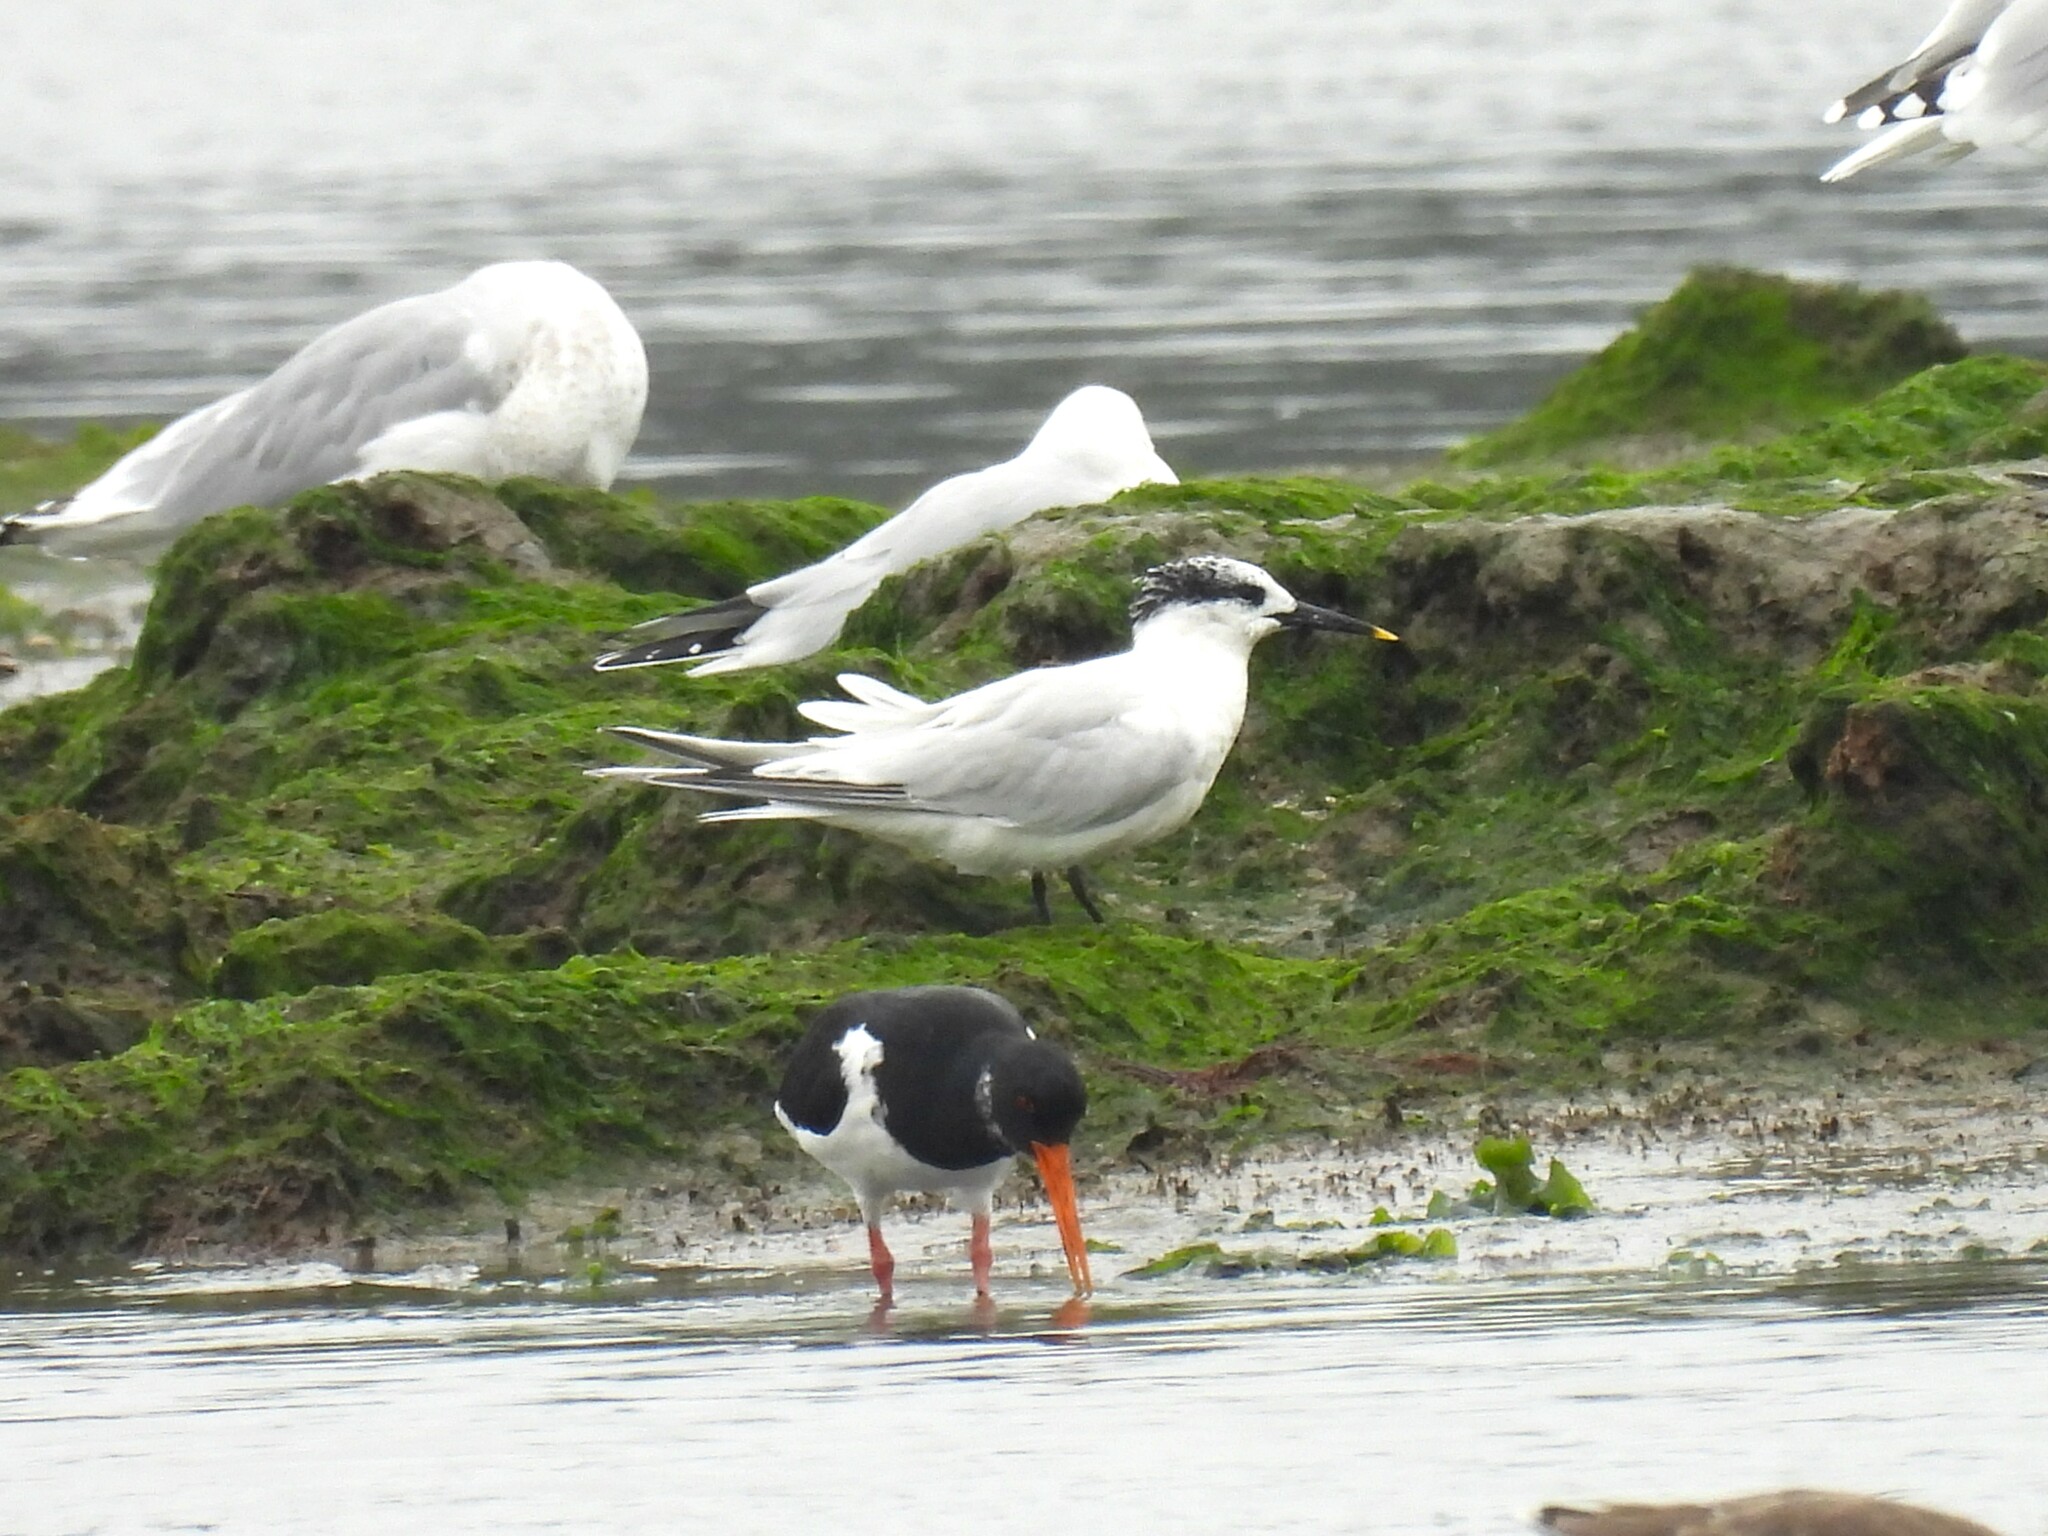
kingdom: Animalia
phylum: Chordata
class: Aves
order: Charadriiformes
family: Laridae
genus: Thalasseus
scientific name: Thalasseus sandvicensis
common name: Sandwich tern
